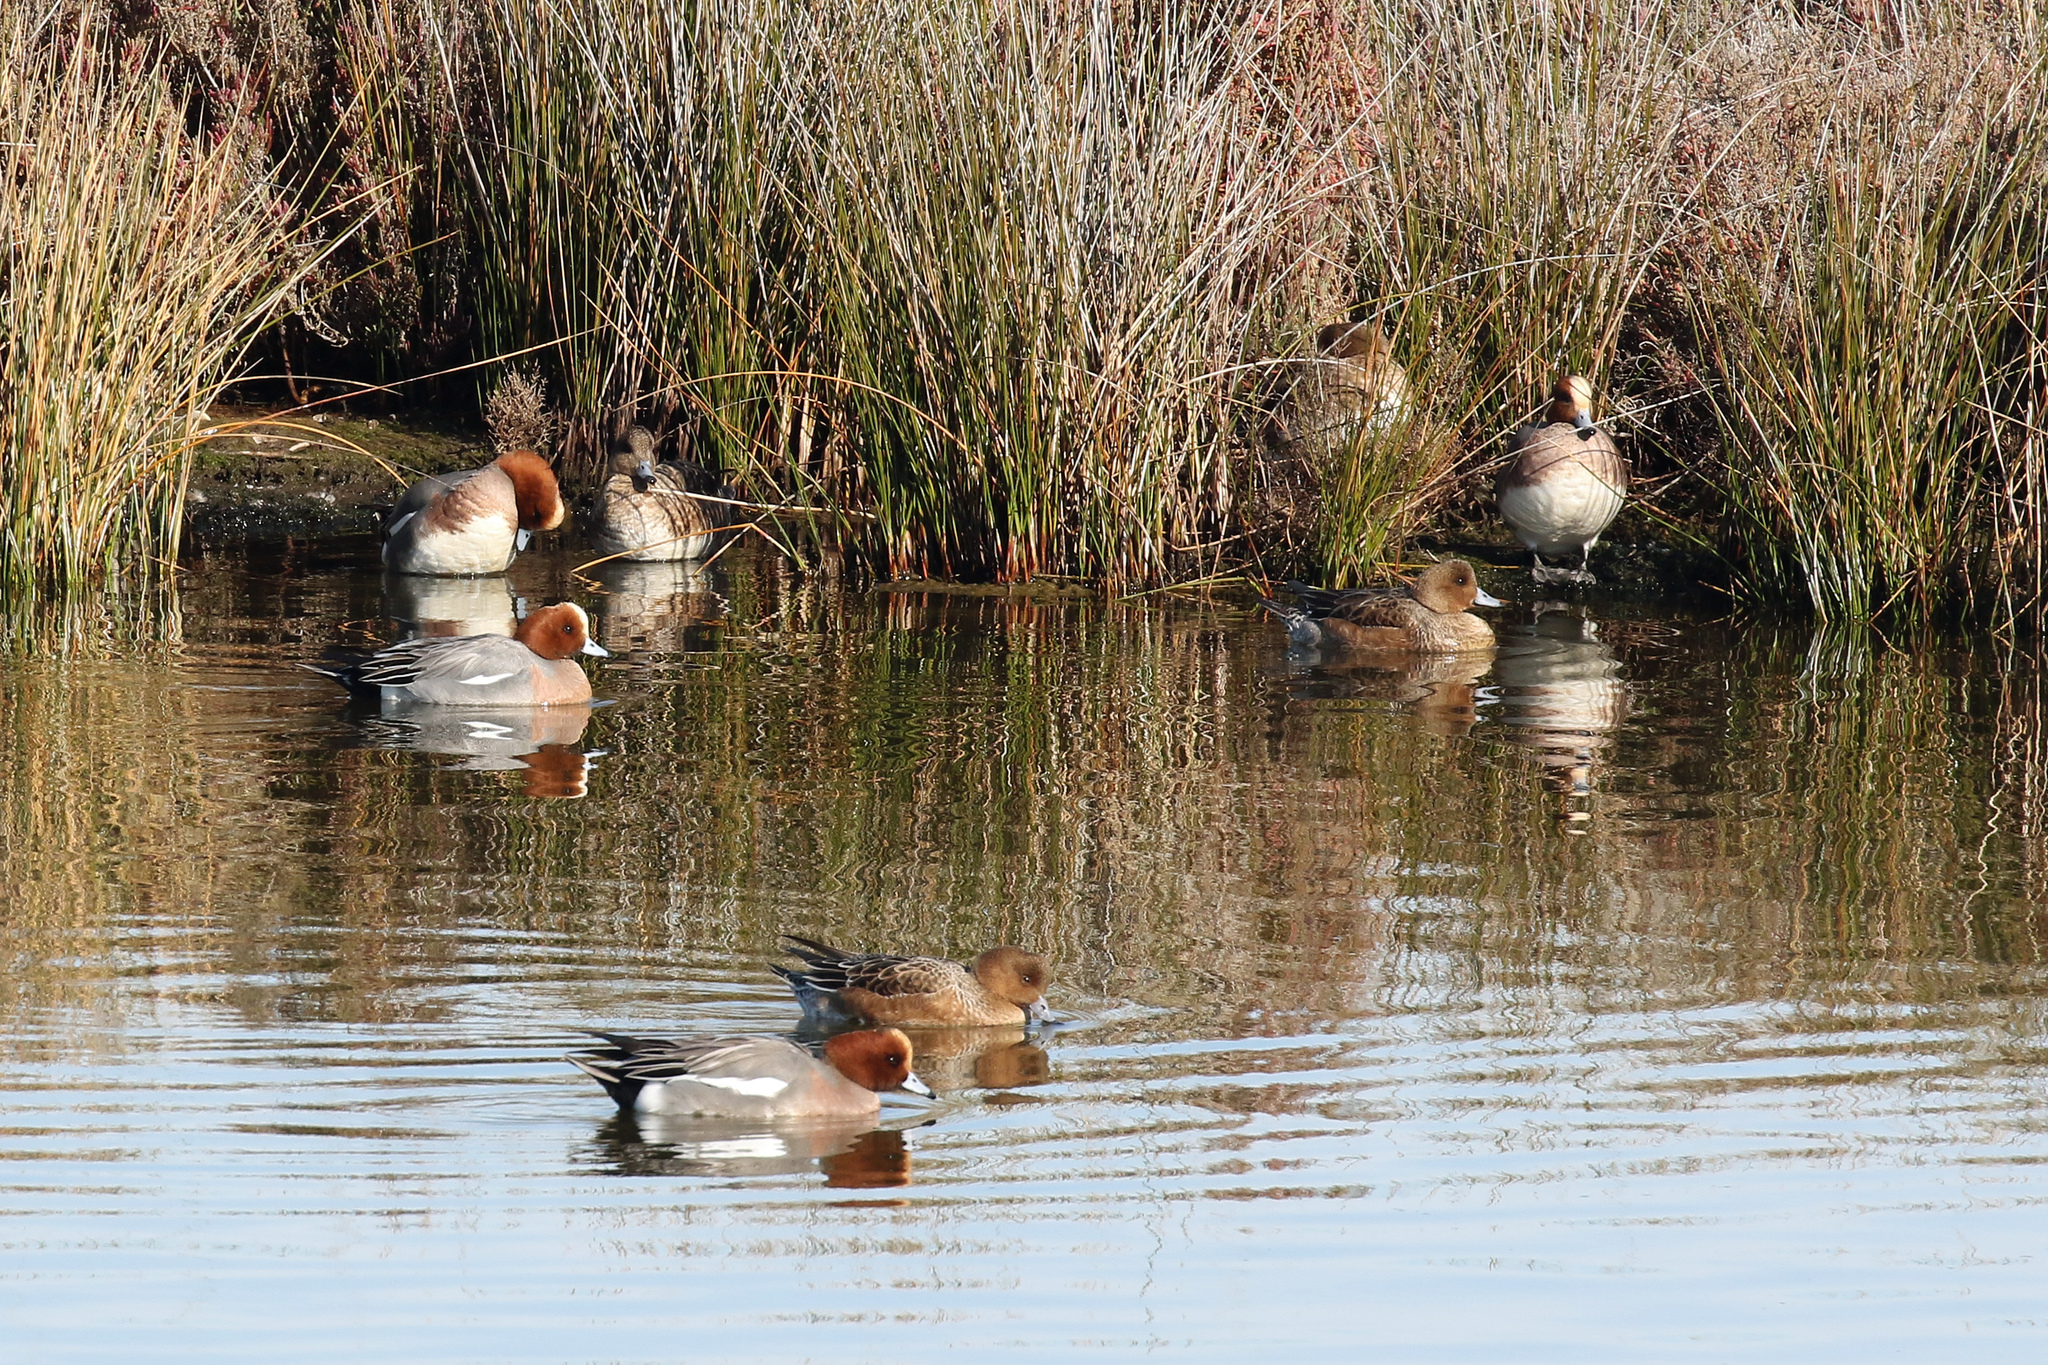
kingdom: Animalia
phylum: Chordata
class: Aves
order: Anseriformes
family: Anatidae
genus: Mareca
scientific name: Mareca penelope
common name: Eurasian wigeon
